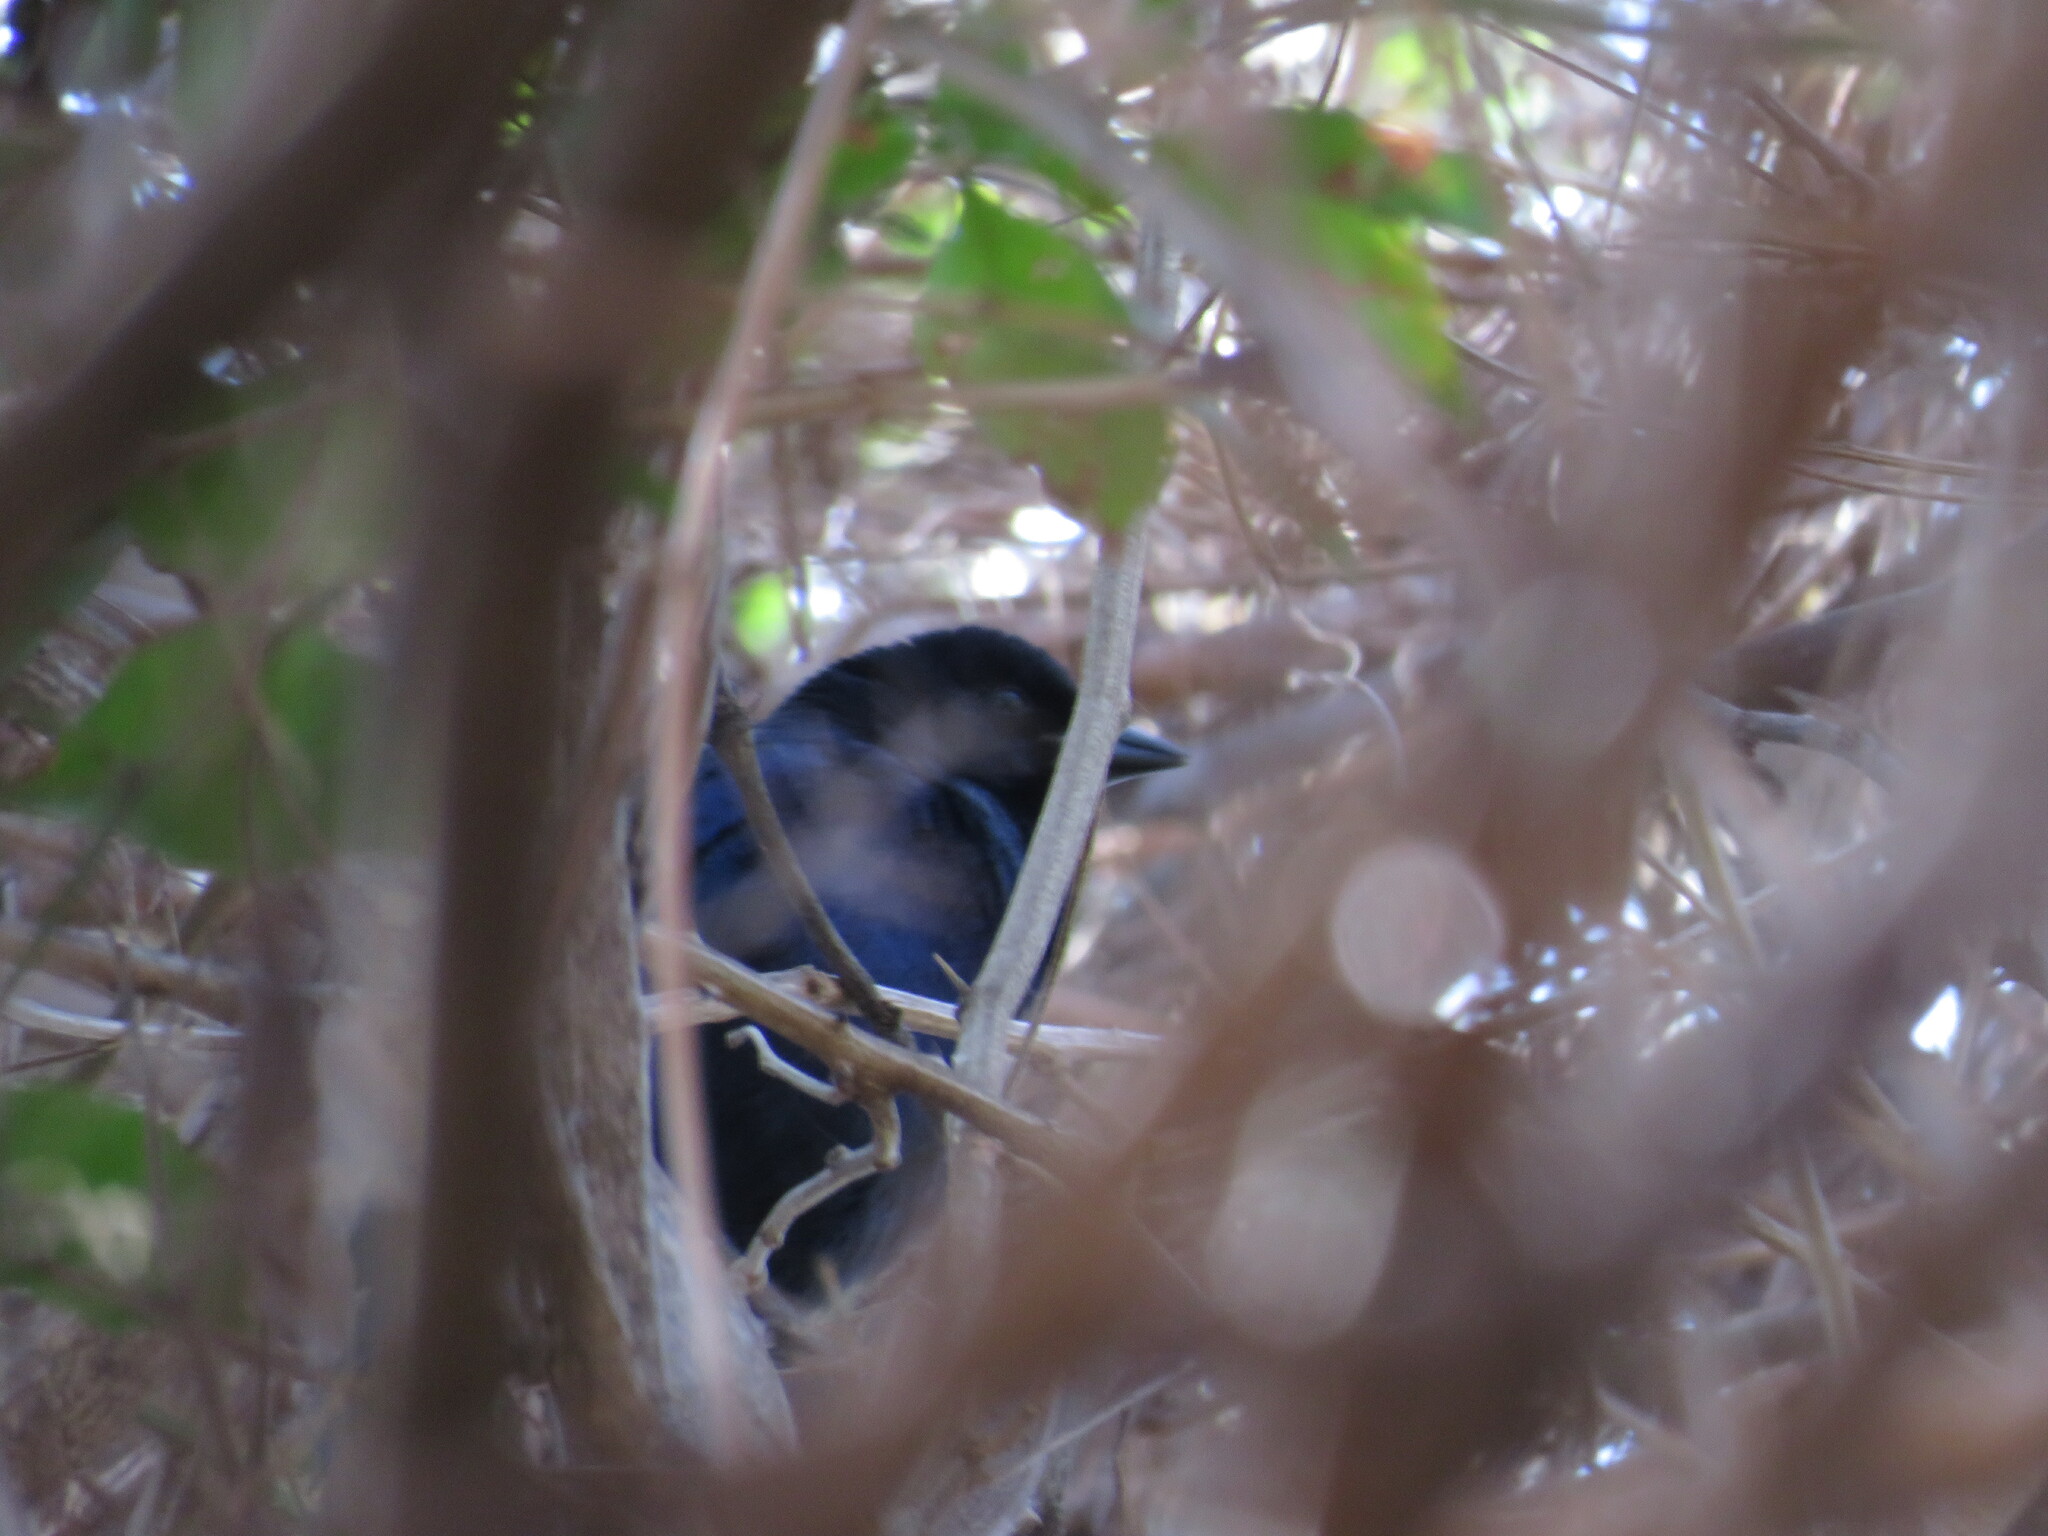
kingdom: Animalia
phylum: Chordata
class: Aves
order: Passeriformes
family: Icteridae
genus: Molothrus
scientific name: Molothrus bonariensis
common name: Shiny cowbird
